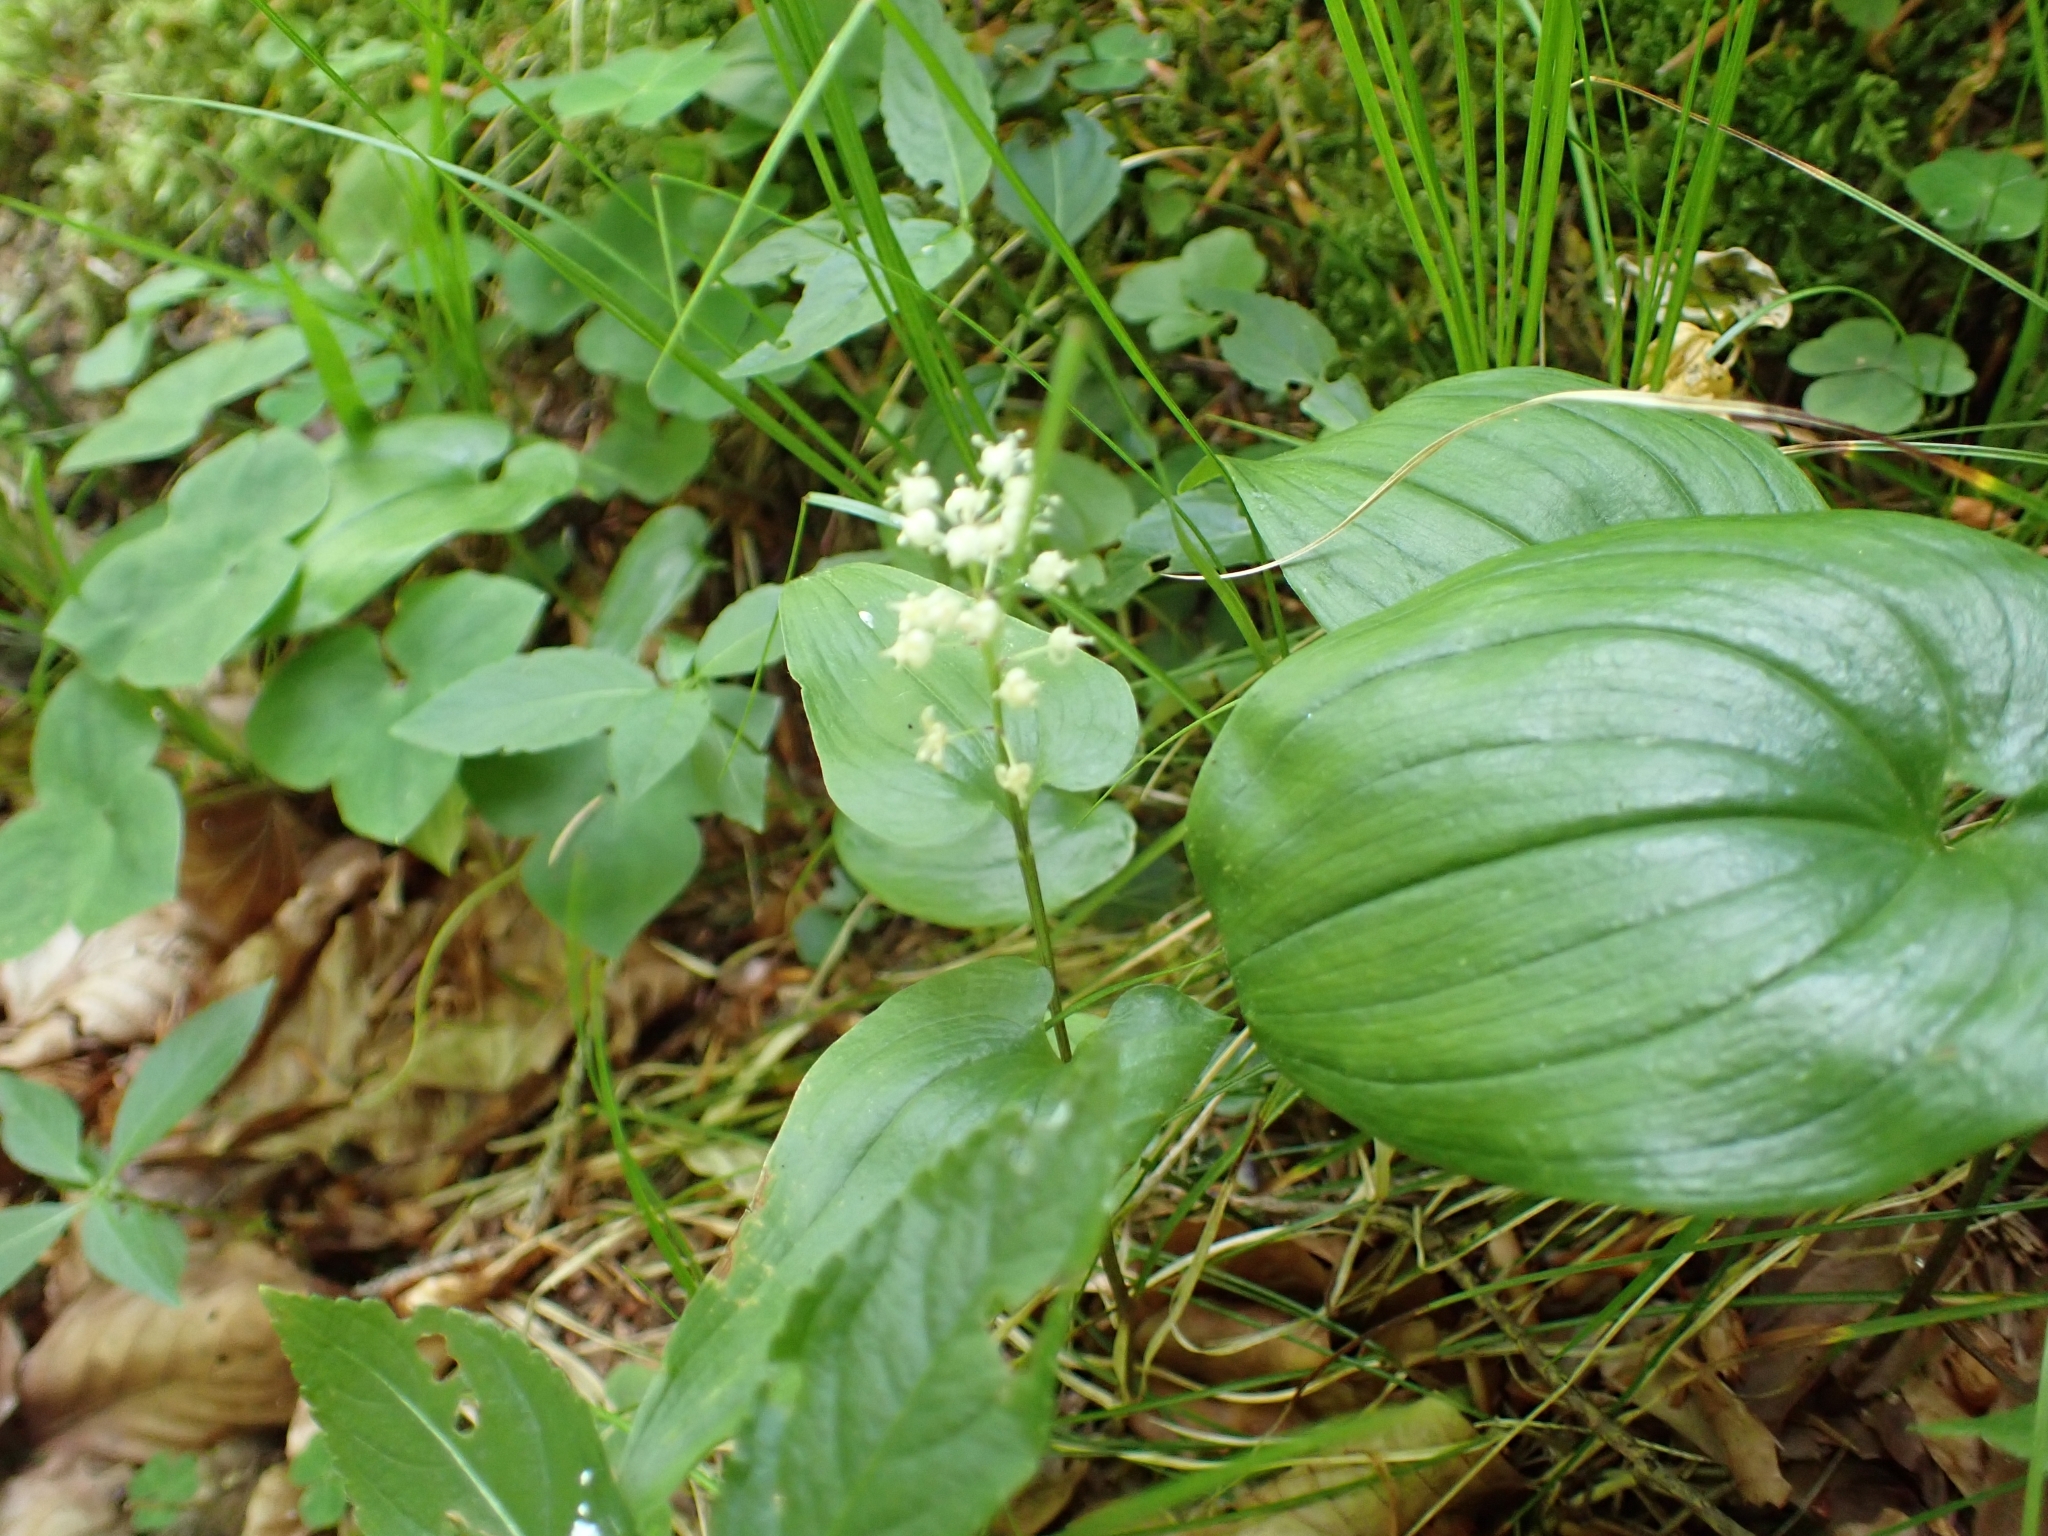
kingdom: Plantae
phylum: Tracheophyta
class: Liliopsida
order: Asparagales
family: Asparagaceae
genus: Maianthemum
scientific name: Maianthemum bifolium
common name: May lily
